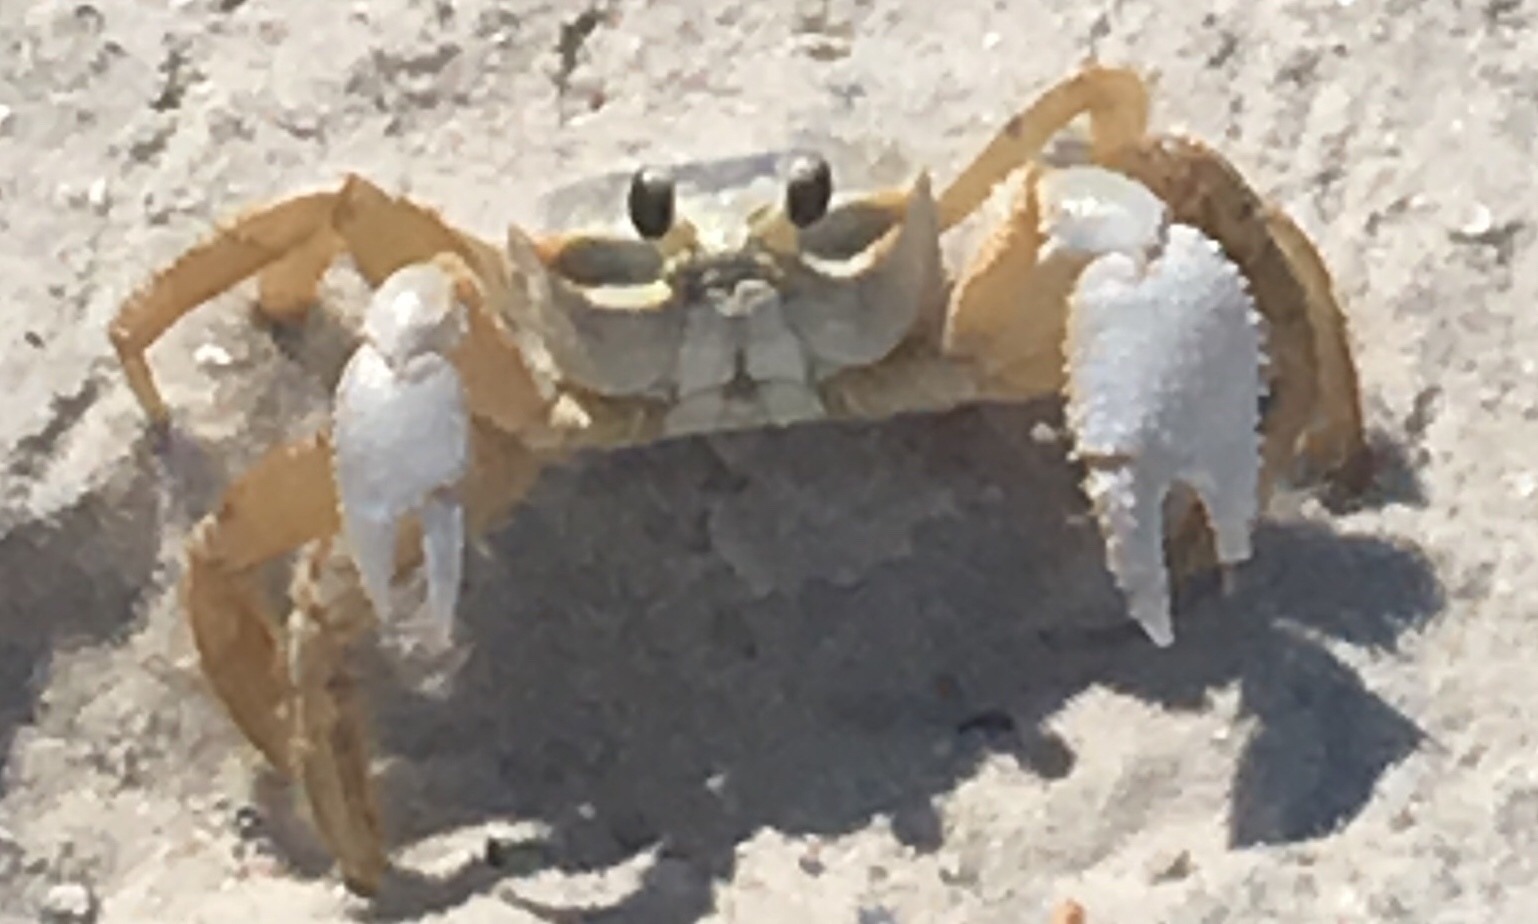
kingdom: Animalia
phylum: Arthropoda
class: Malacostraca
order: Decapoda
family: Ocypodidae
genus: Ocypode
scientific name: Ocypode quadrata
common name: Ghost crab
